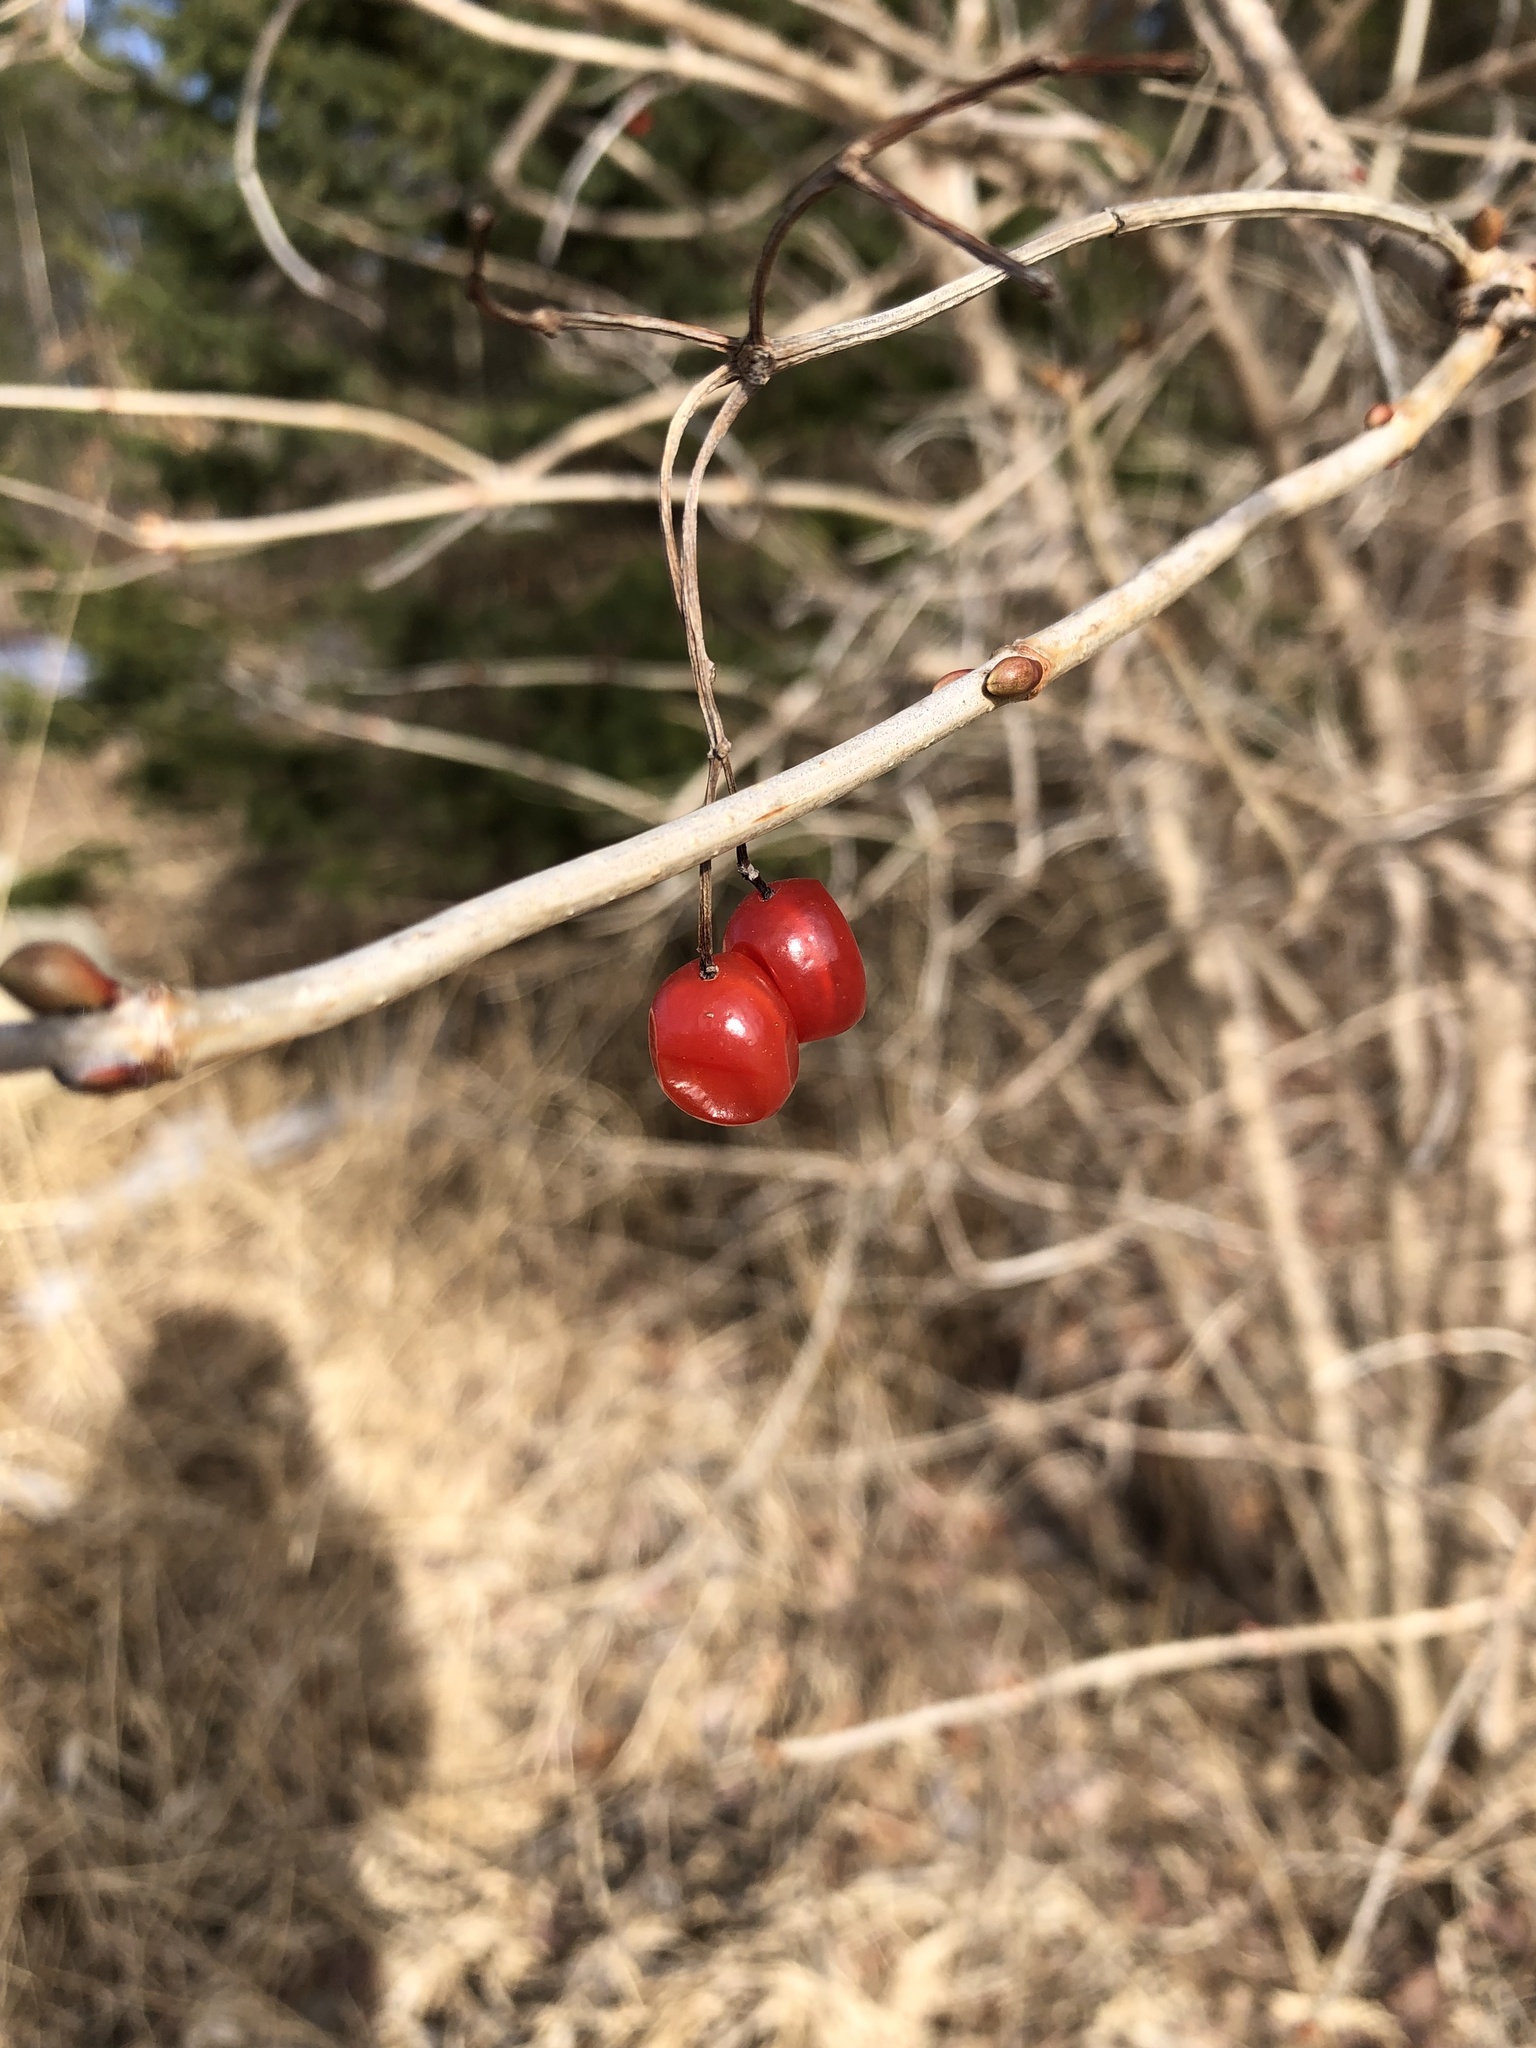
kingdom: Plantae
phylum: Tracheophyta
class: Magnoliopsida
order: Dipsacales
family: Viburnaceae
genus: Viburnum
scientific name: Viburnum opulus
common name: Guelder-rose
